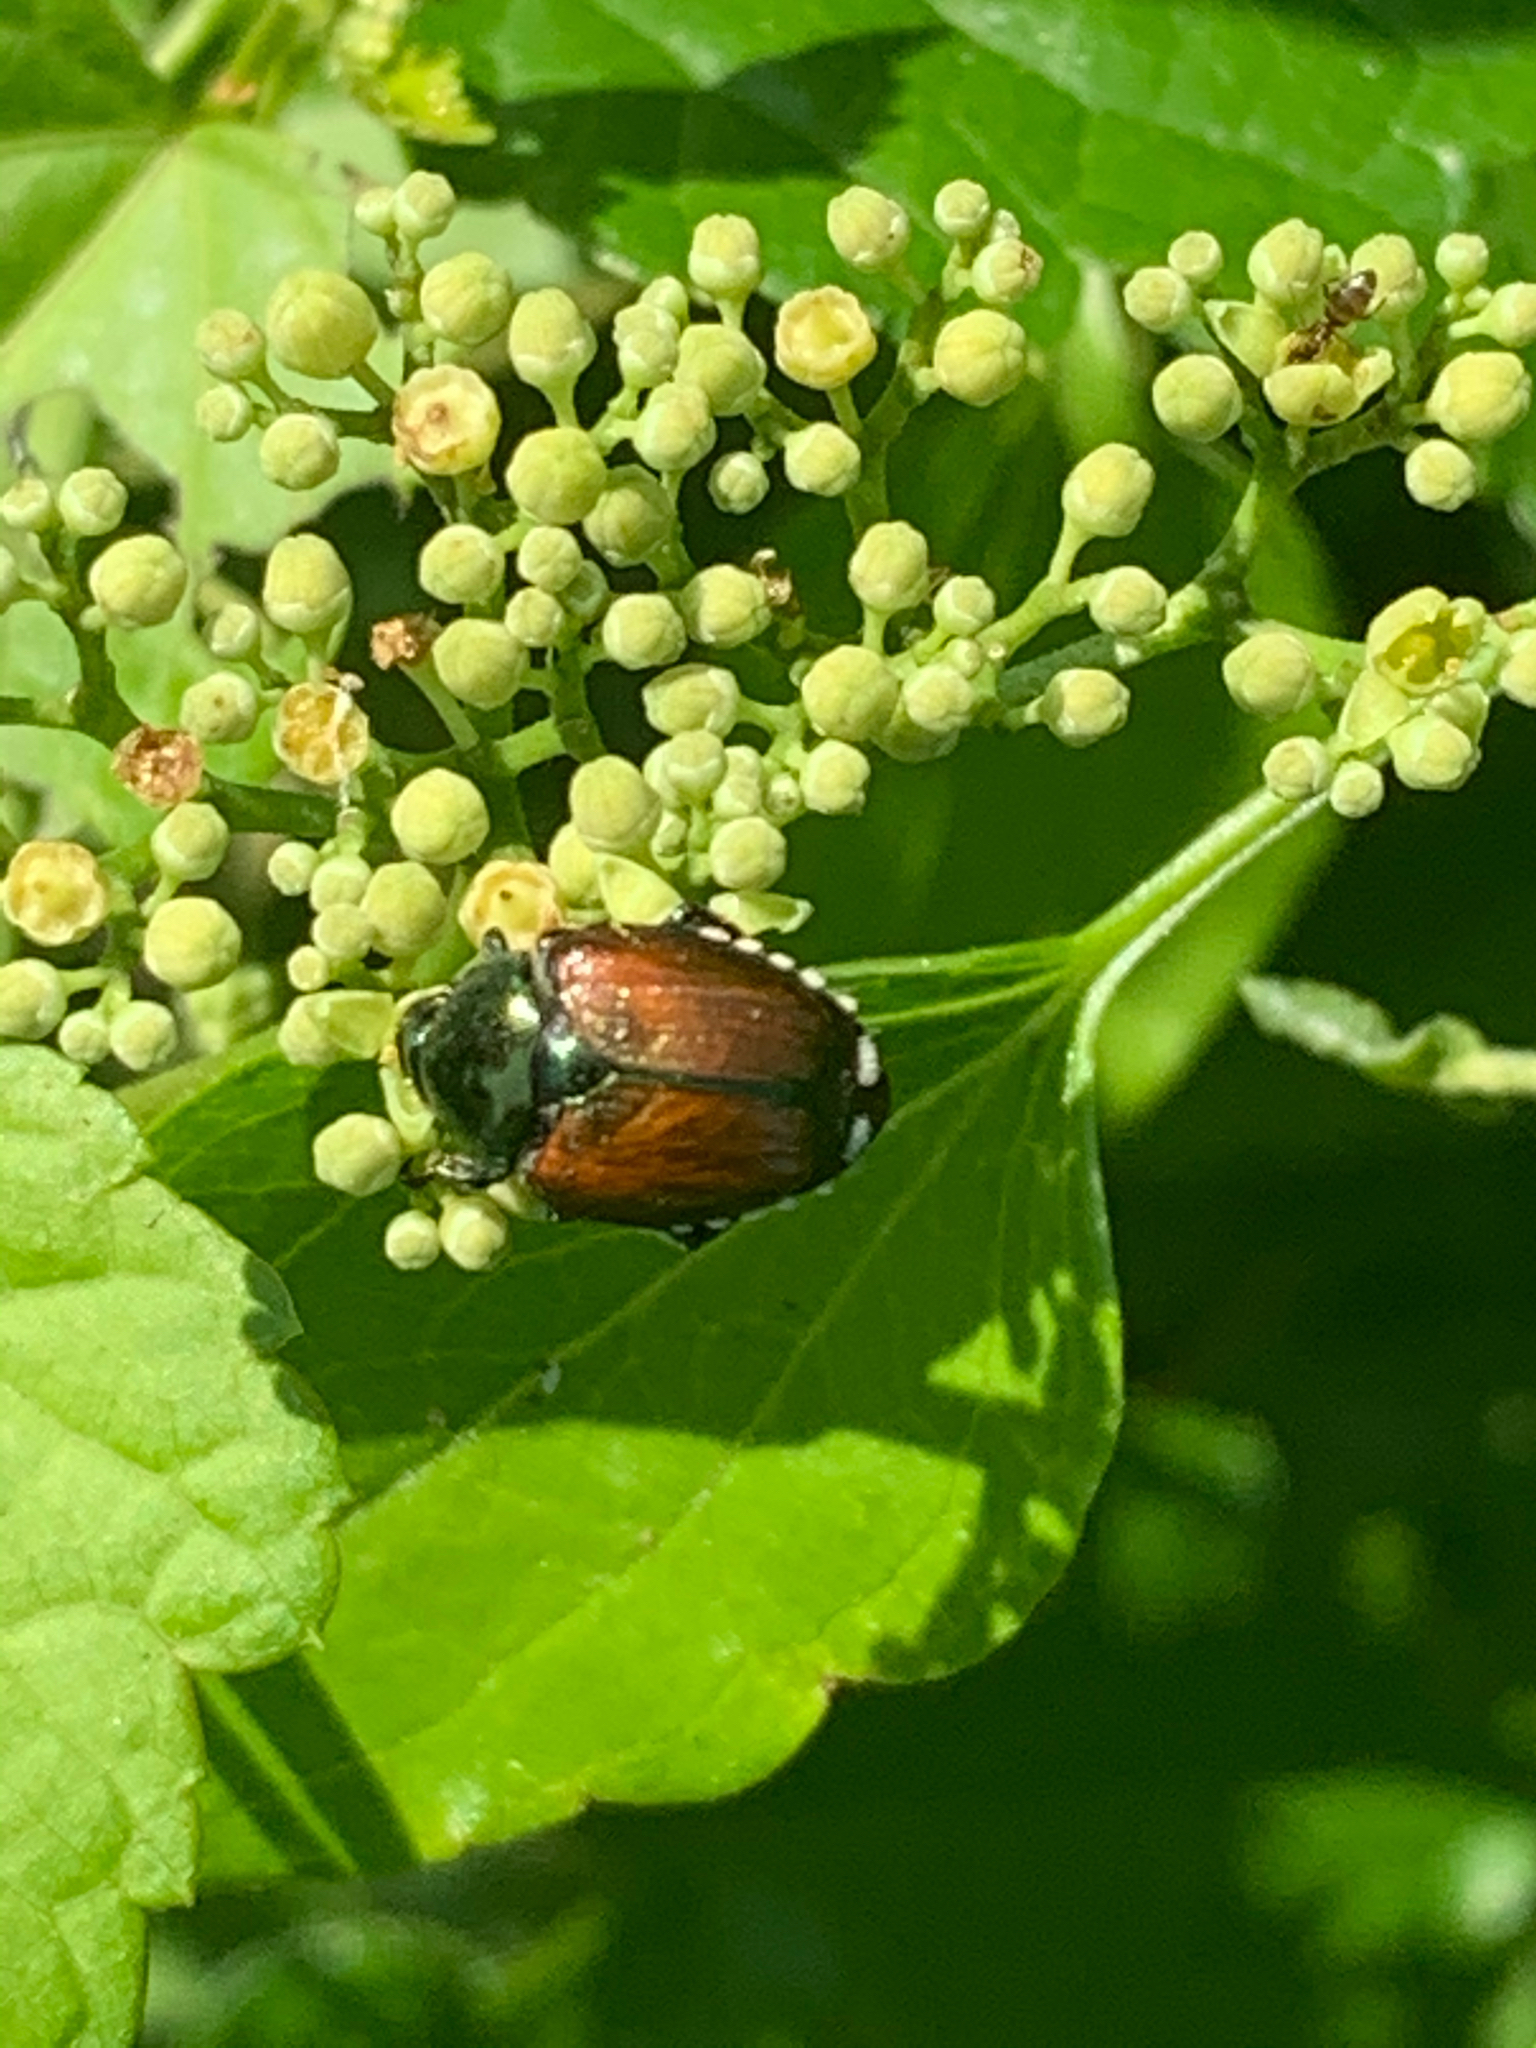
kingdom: Animalia
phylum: Arthropoda
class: Insecta
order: Coleoptera
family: Scarabaeidae
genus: Popillia
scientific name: Popillia japonica
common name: Japanese beetle
